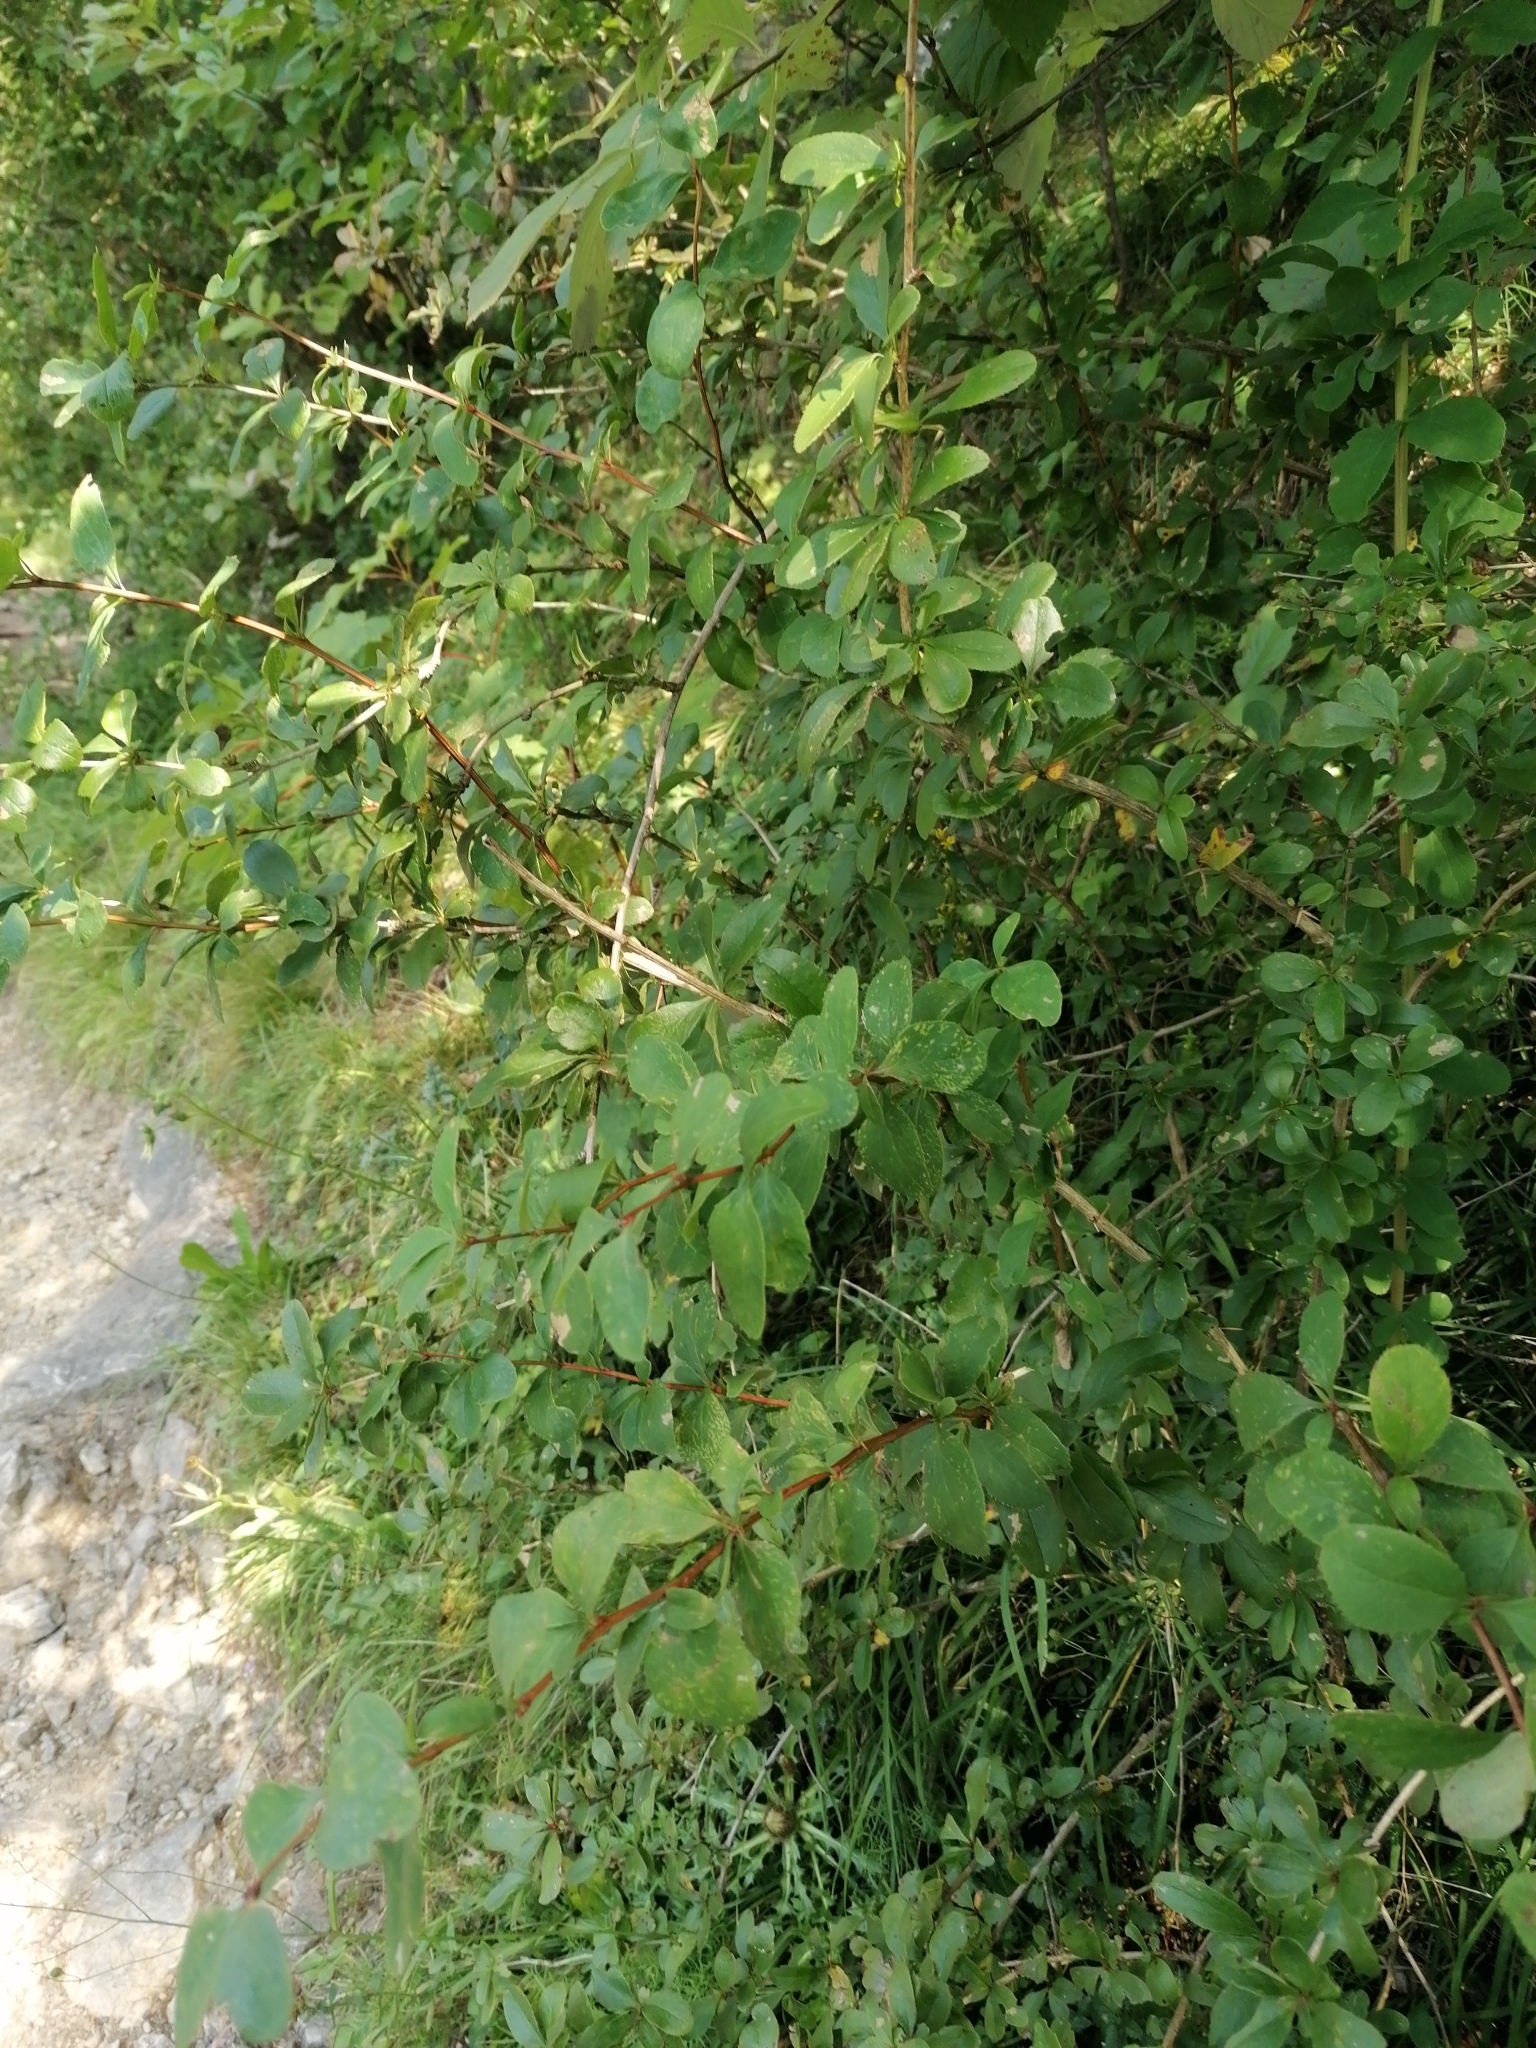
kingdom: Plantae
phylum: Tracheophyta
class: Magnoliopsida
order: Ranunculales
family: Berberidaceae
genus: Berberis
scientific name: Berberis vulgaris
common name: Barberry
